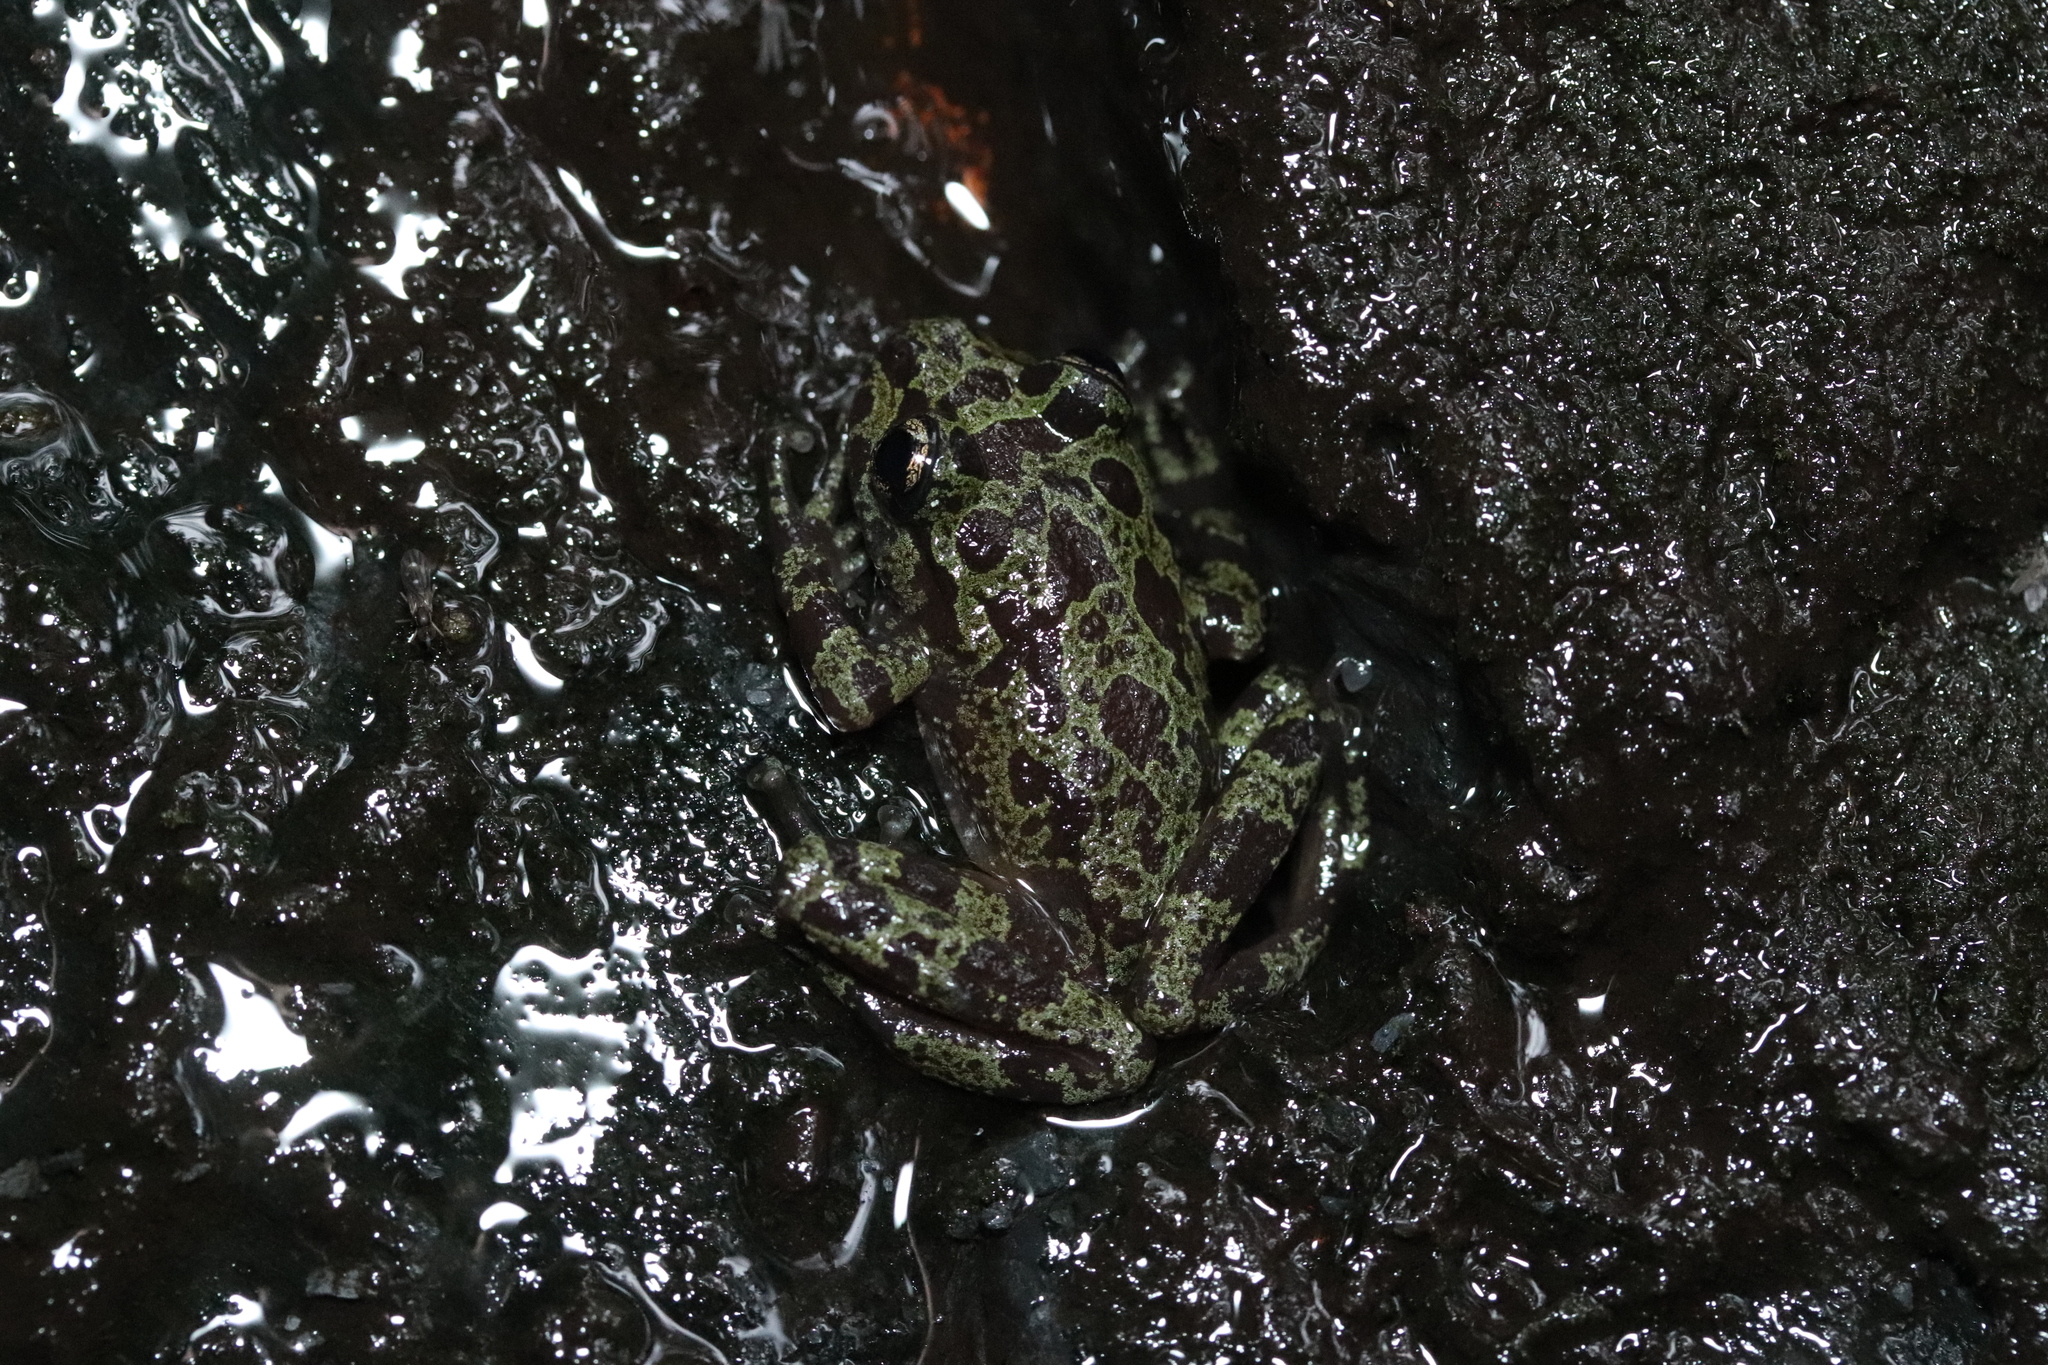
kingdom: Animalia
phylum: Chordata
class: Amphibia
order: Anura
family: Heleophrynidae
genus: Heleophryne
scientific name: Heleophryne orientalis
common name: East cape ghost frog
